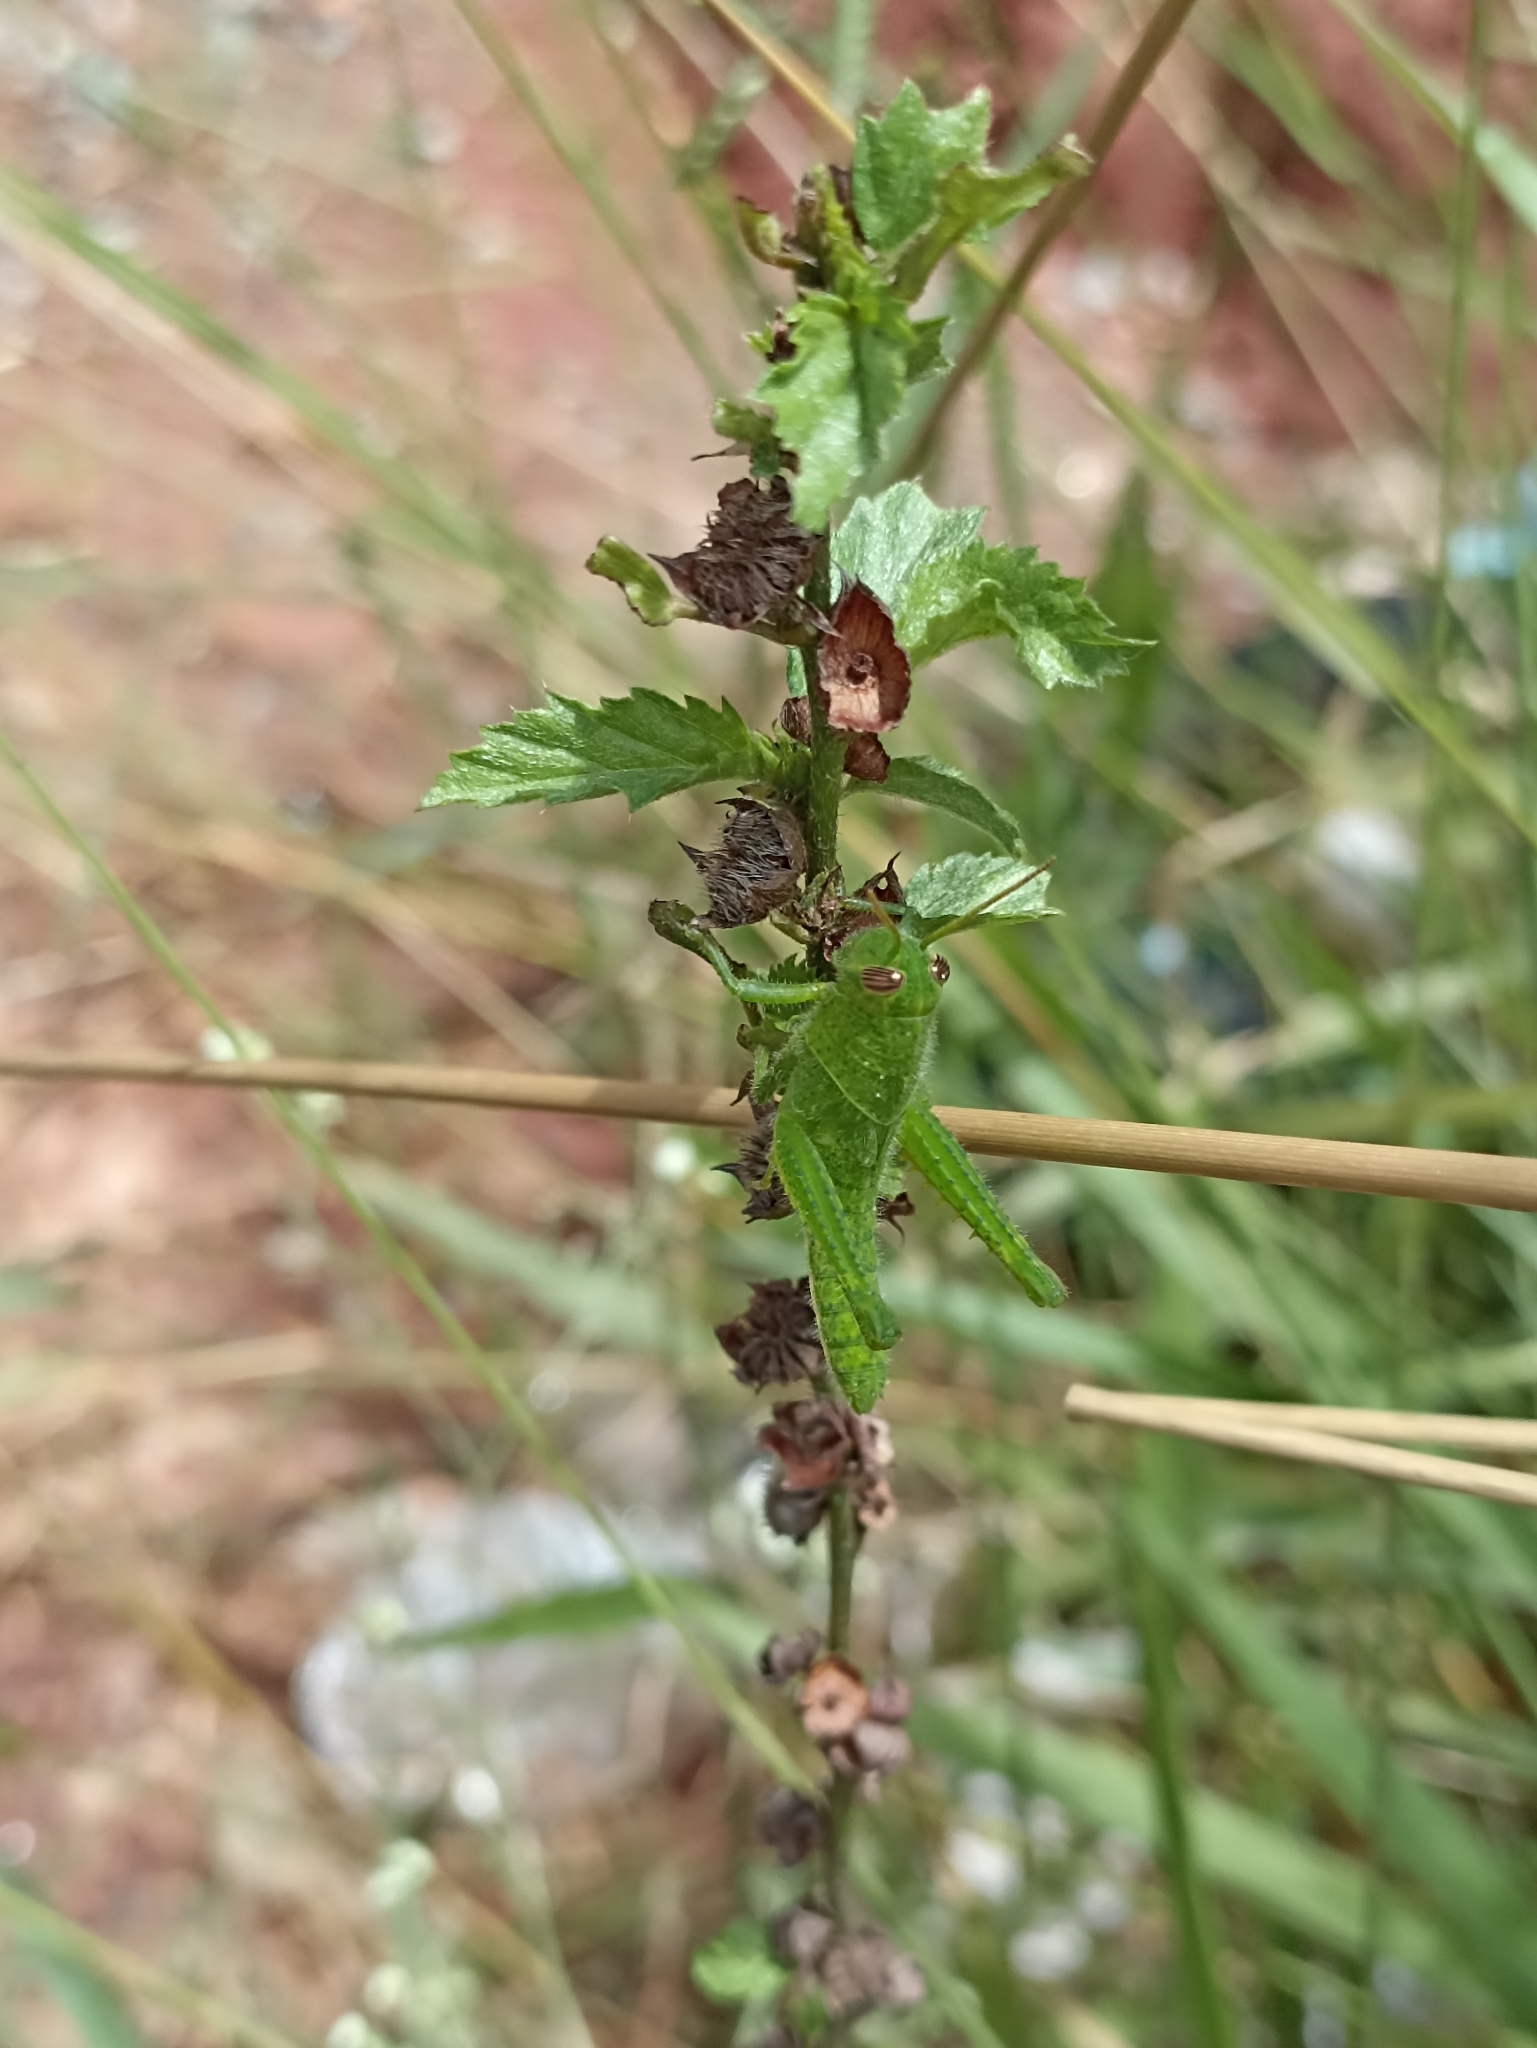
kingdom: Animalia
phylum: Arthropoda
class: Insecta
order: Orthoptera
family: Acrididae
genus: Schistocerca
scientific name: Schistocerca flavofasciata
